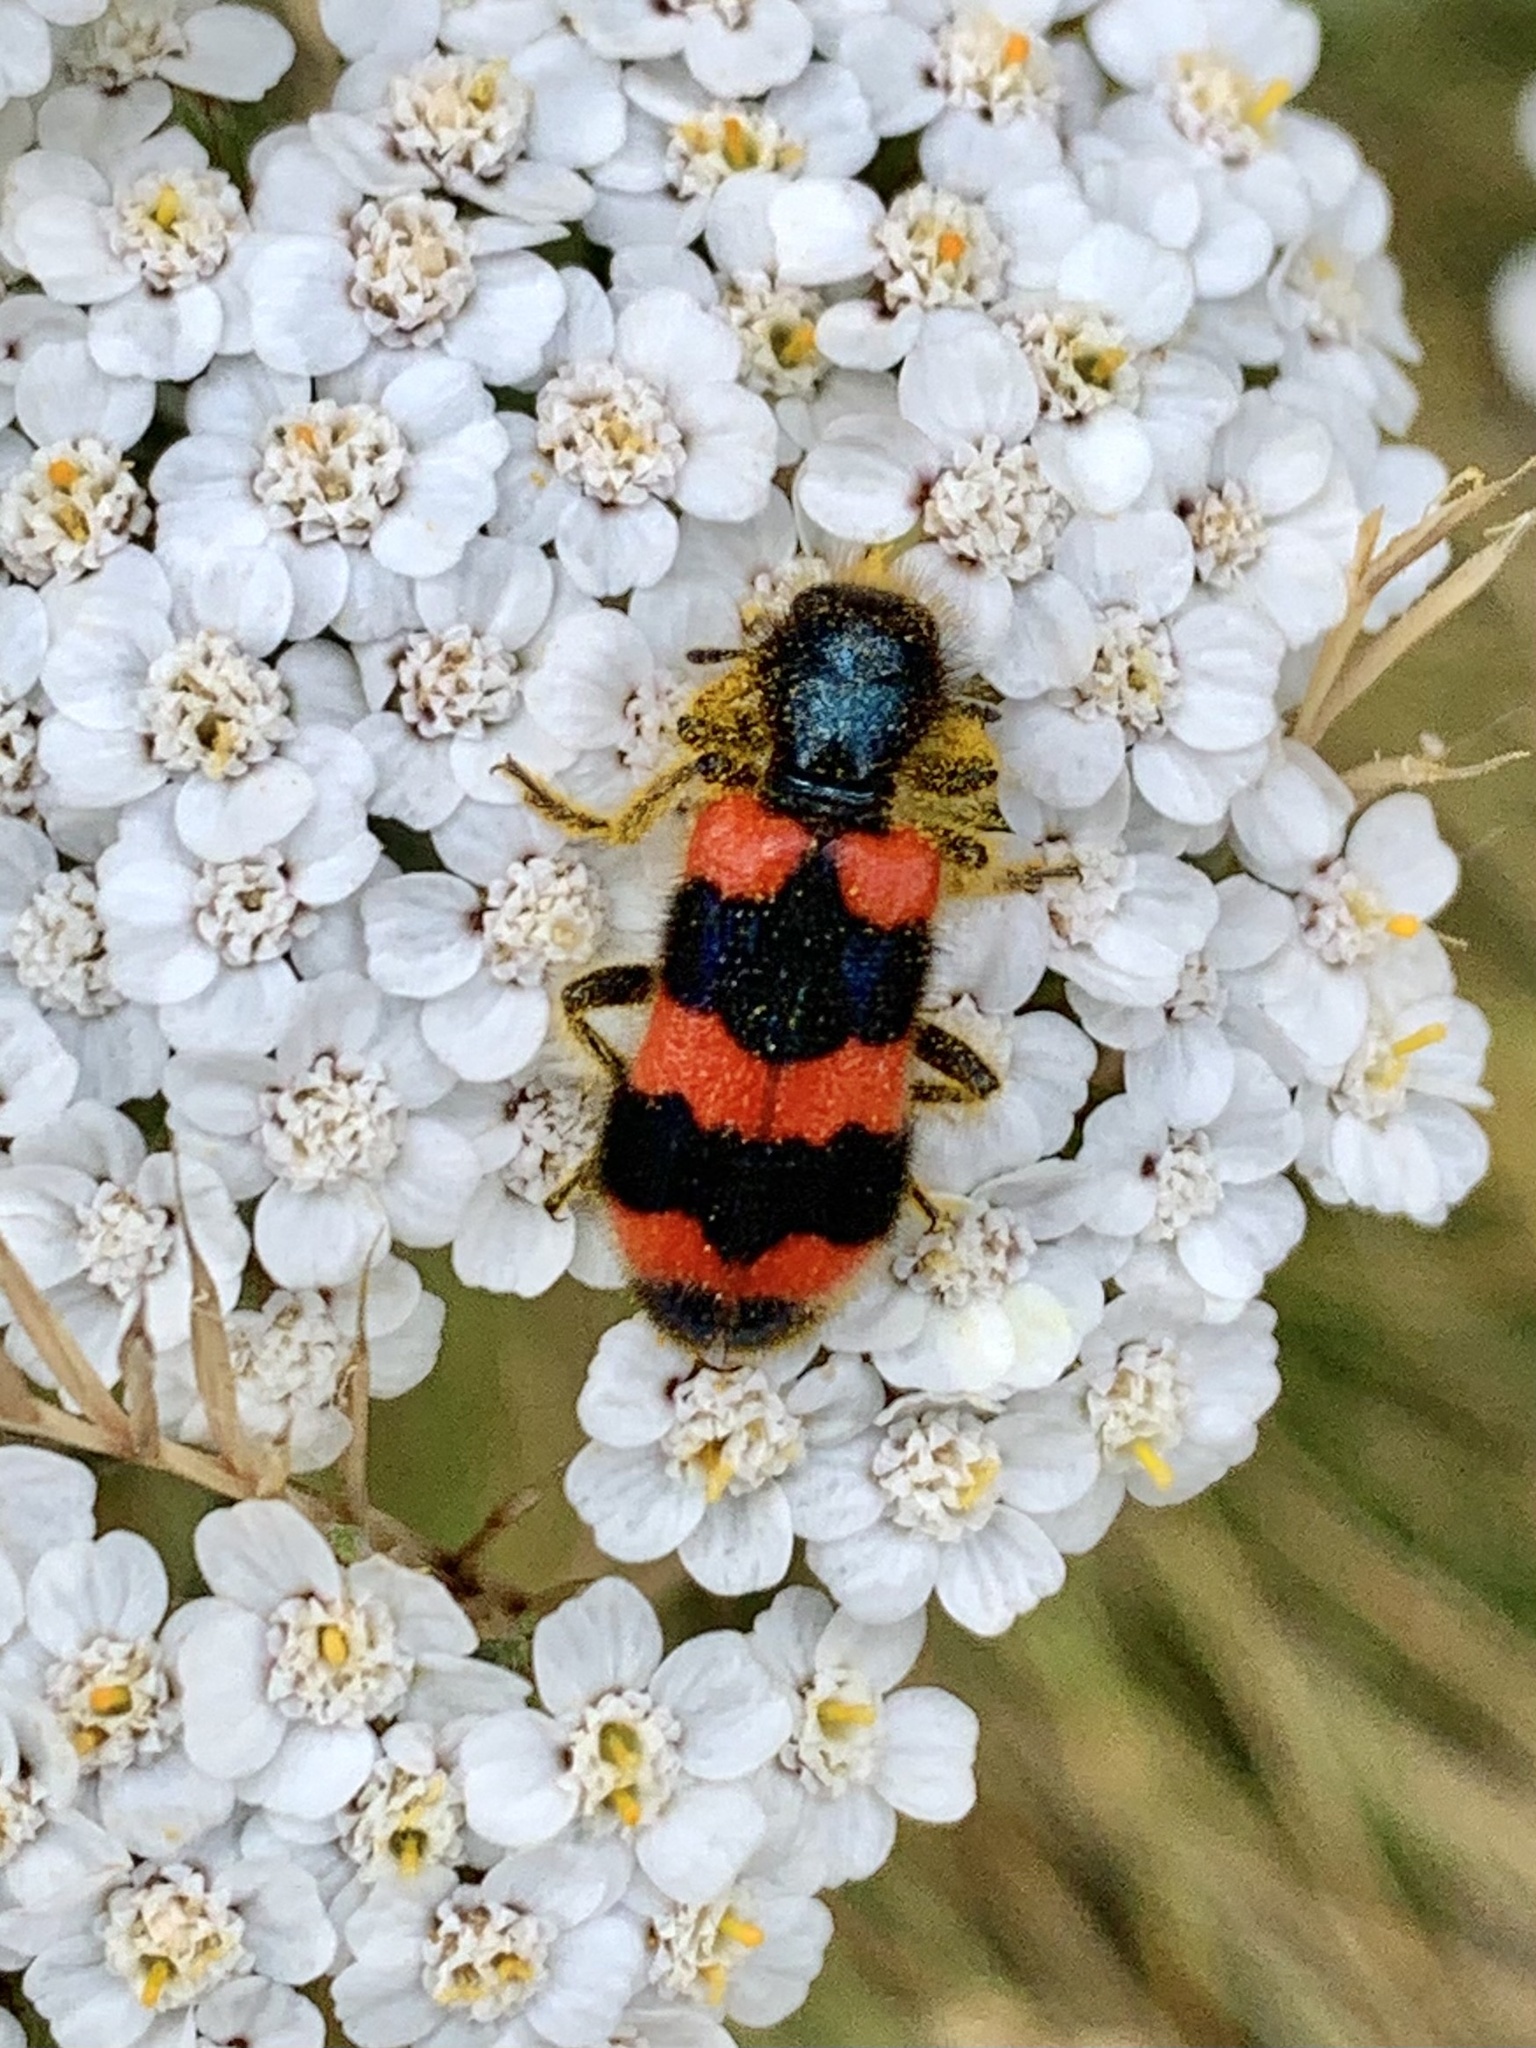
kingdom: Animalia
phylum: Arthropoda
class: Insecta
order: Coleoptera
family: Cleridae
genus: Trichodes
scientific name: Trichodes apiarius
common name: Bee-eating beetle
